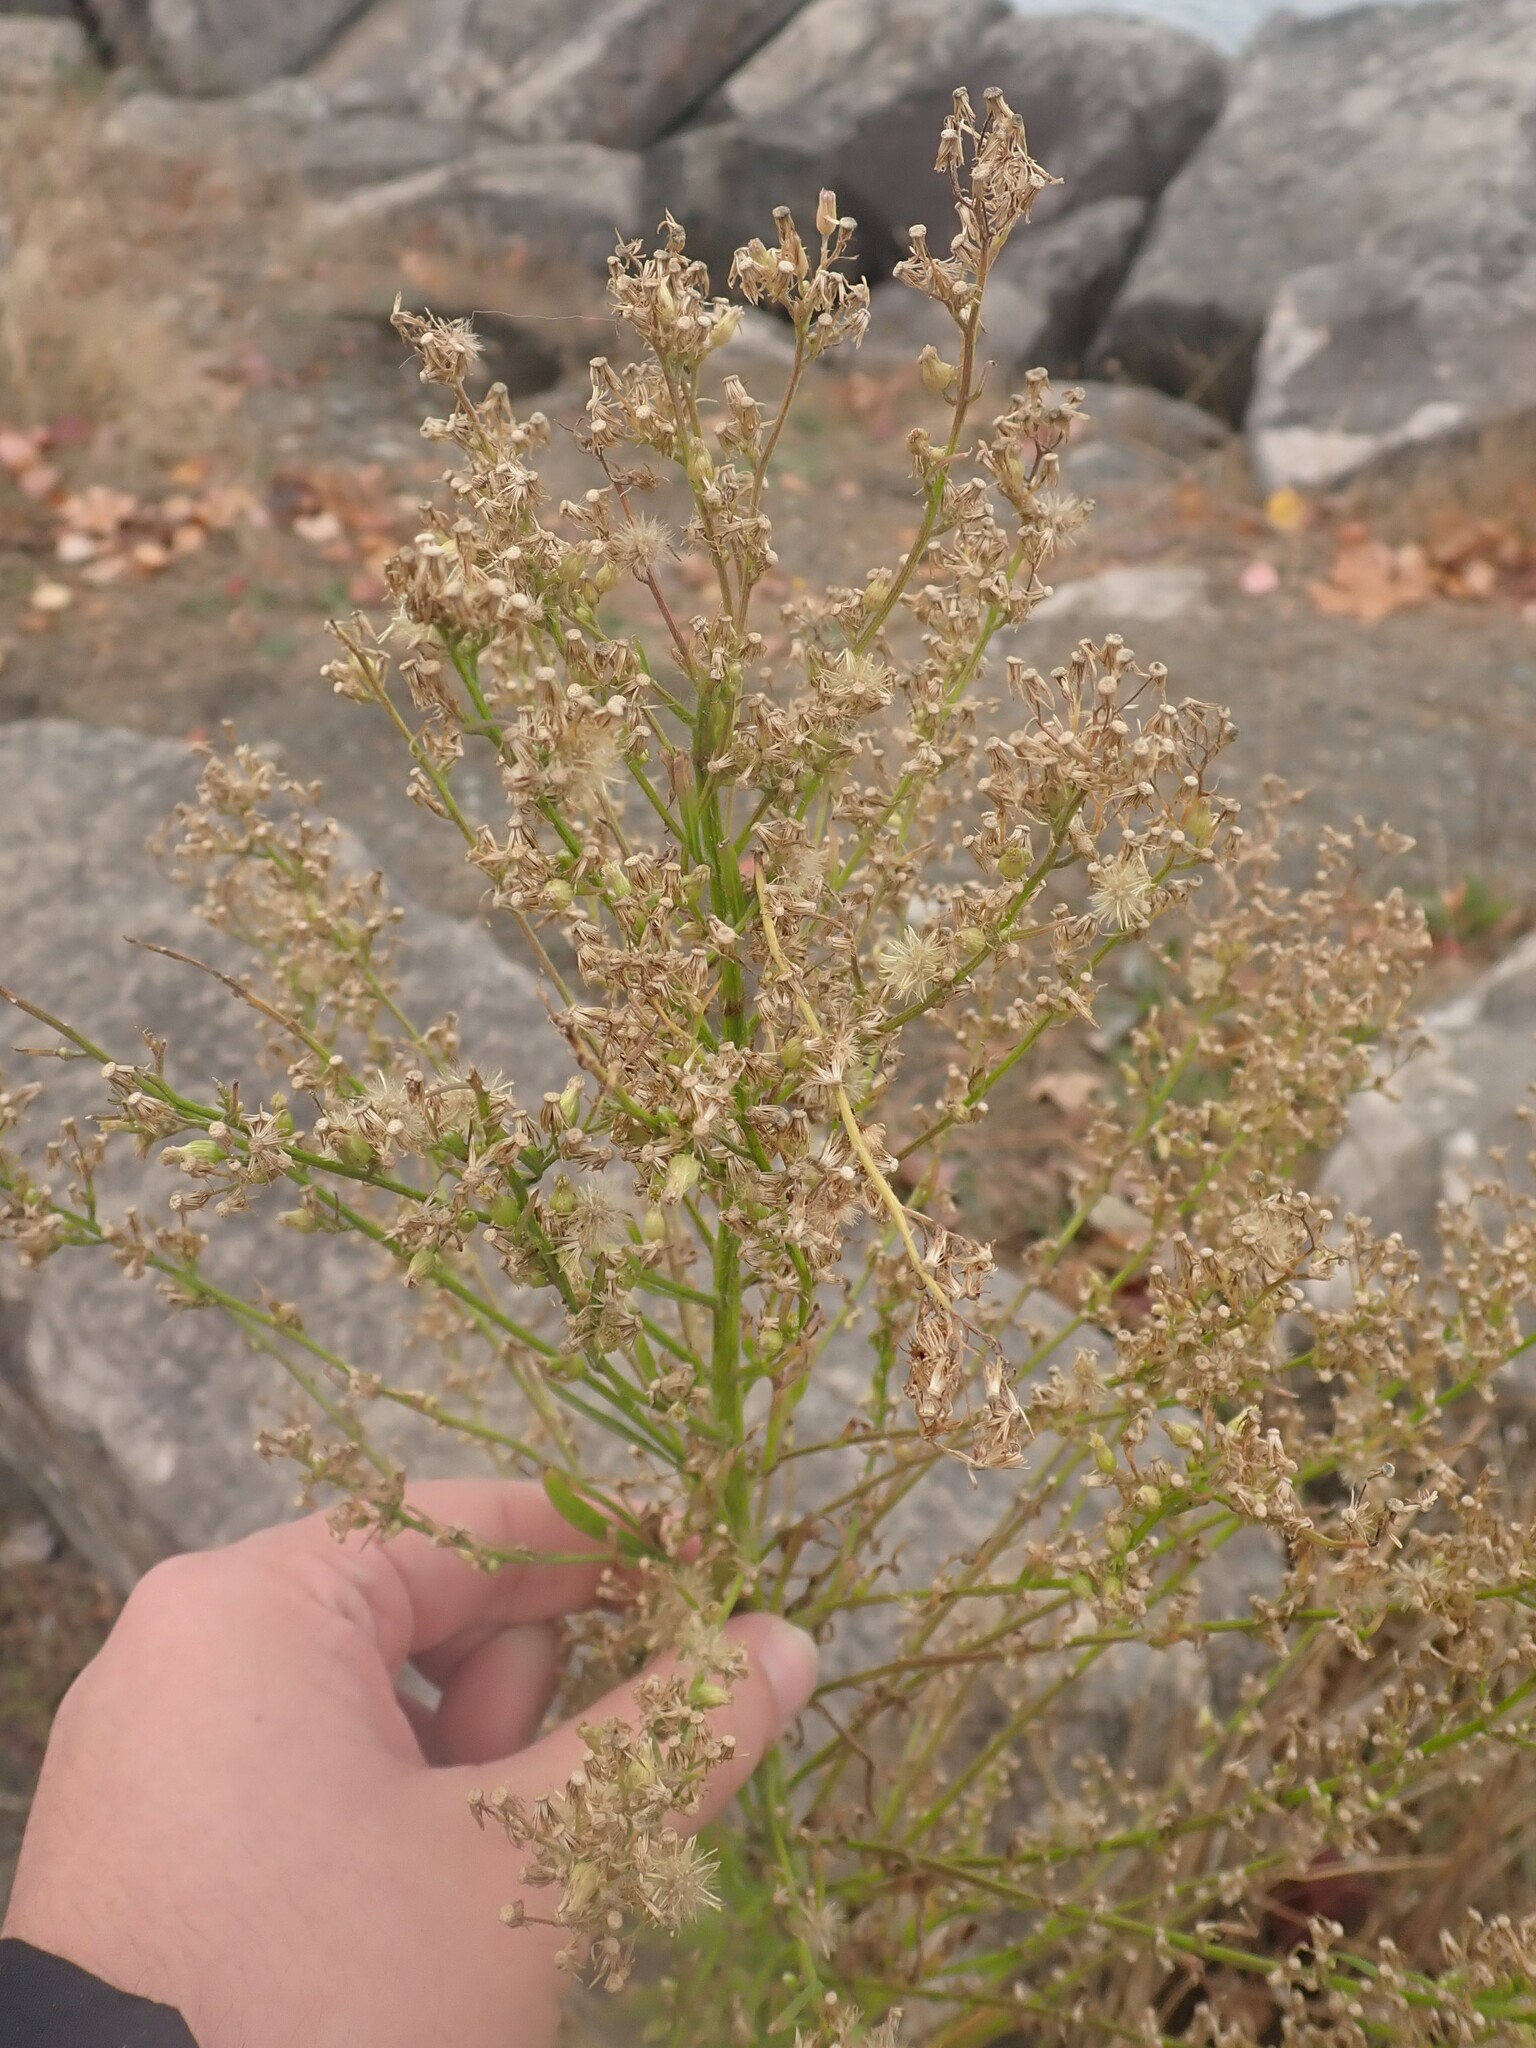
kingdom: Plantae
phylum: Tracheophyta
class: Magnoliopsida
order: Asterales
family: Asteraceae
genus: Erigeron
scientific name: Erigeron canadensis
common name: Canadian fleabane
